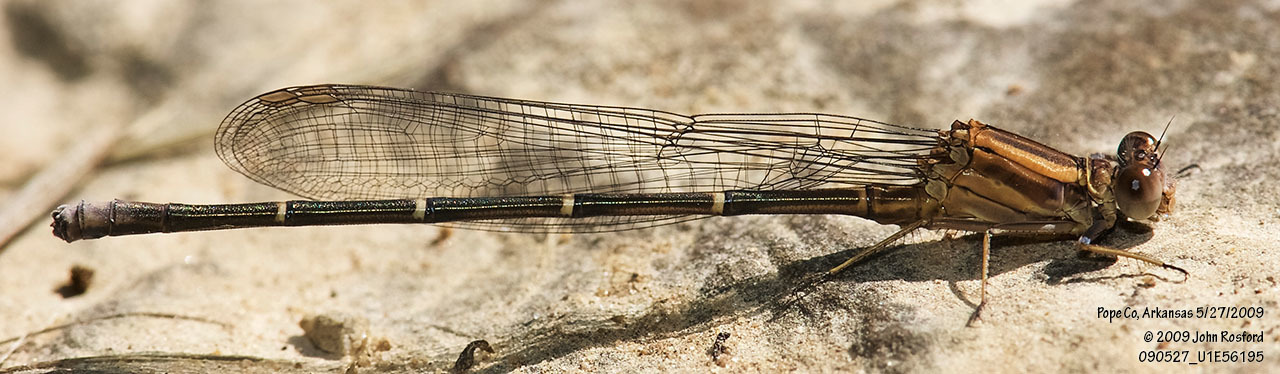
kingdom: Animalia
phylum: Arthropoda
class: Insecta
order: Odonata
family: Coenagrionidae
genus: Argia
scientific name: Argia moesta
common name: Powdered dancer
